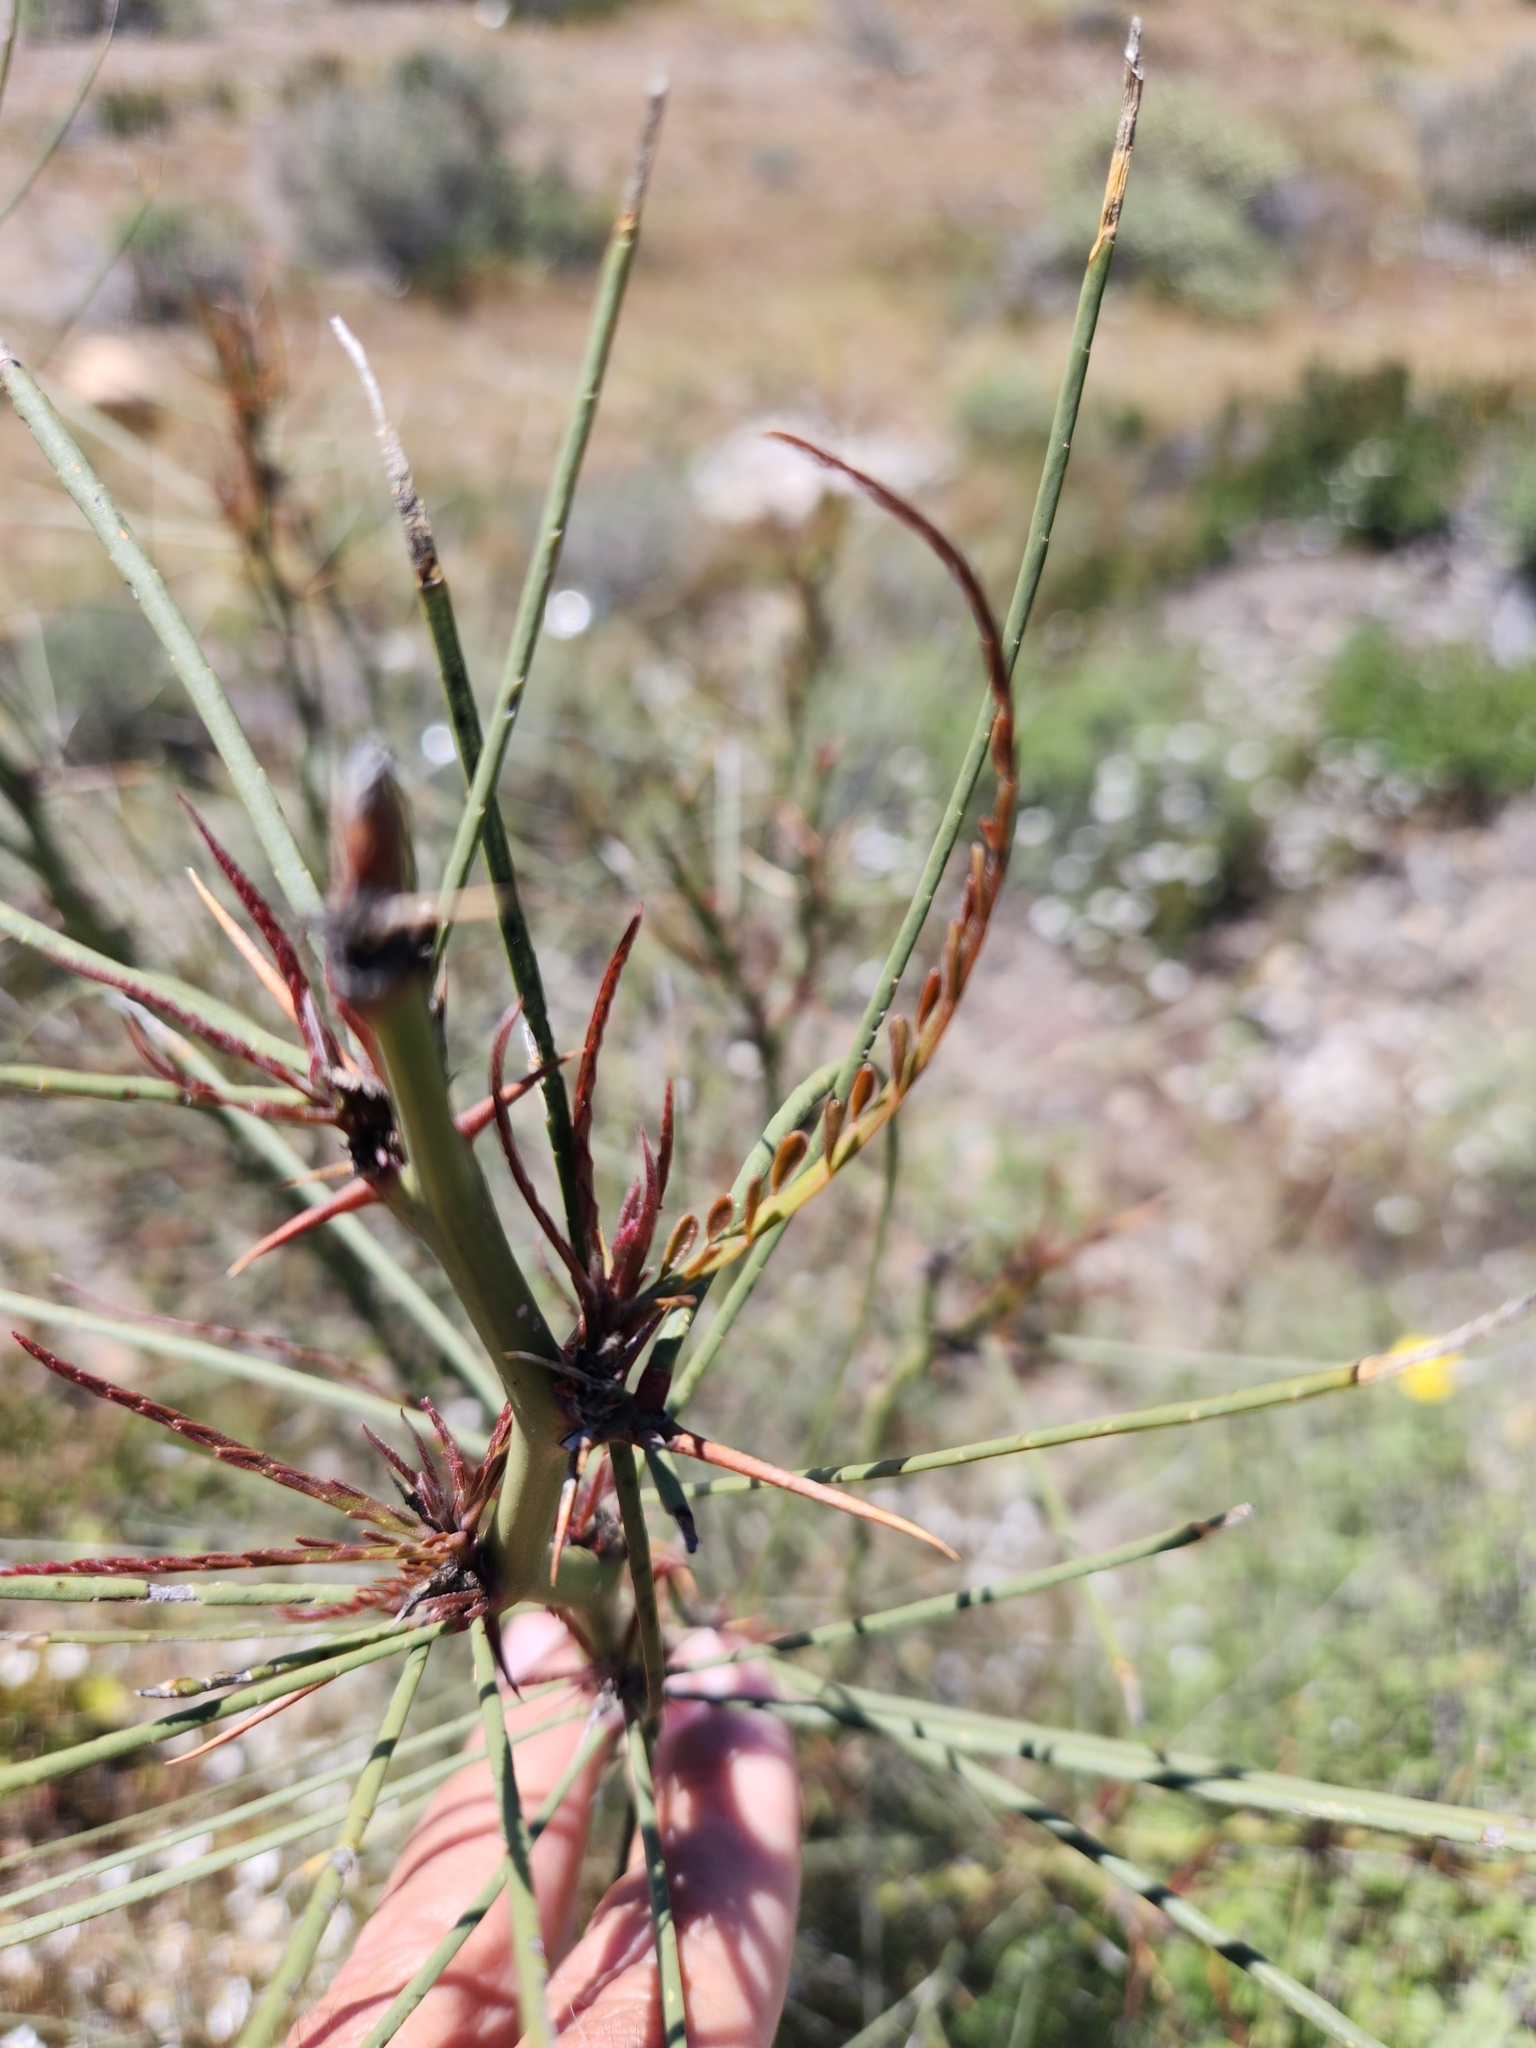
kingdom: Plantae
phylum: Tracheophyta
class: Magnoliopsida
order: Fabales
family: Fabaceae
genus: Parkinsonia
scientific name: Parkinsonia aculeata
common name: Jerusalem thorn
